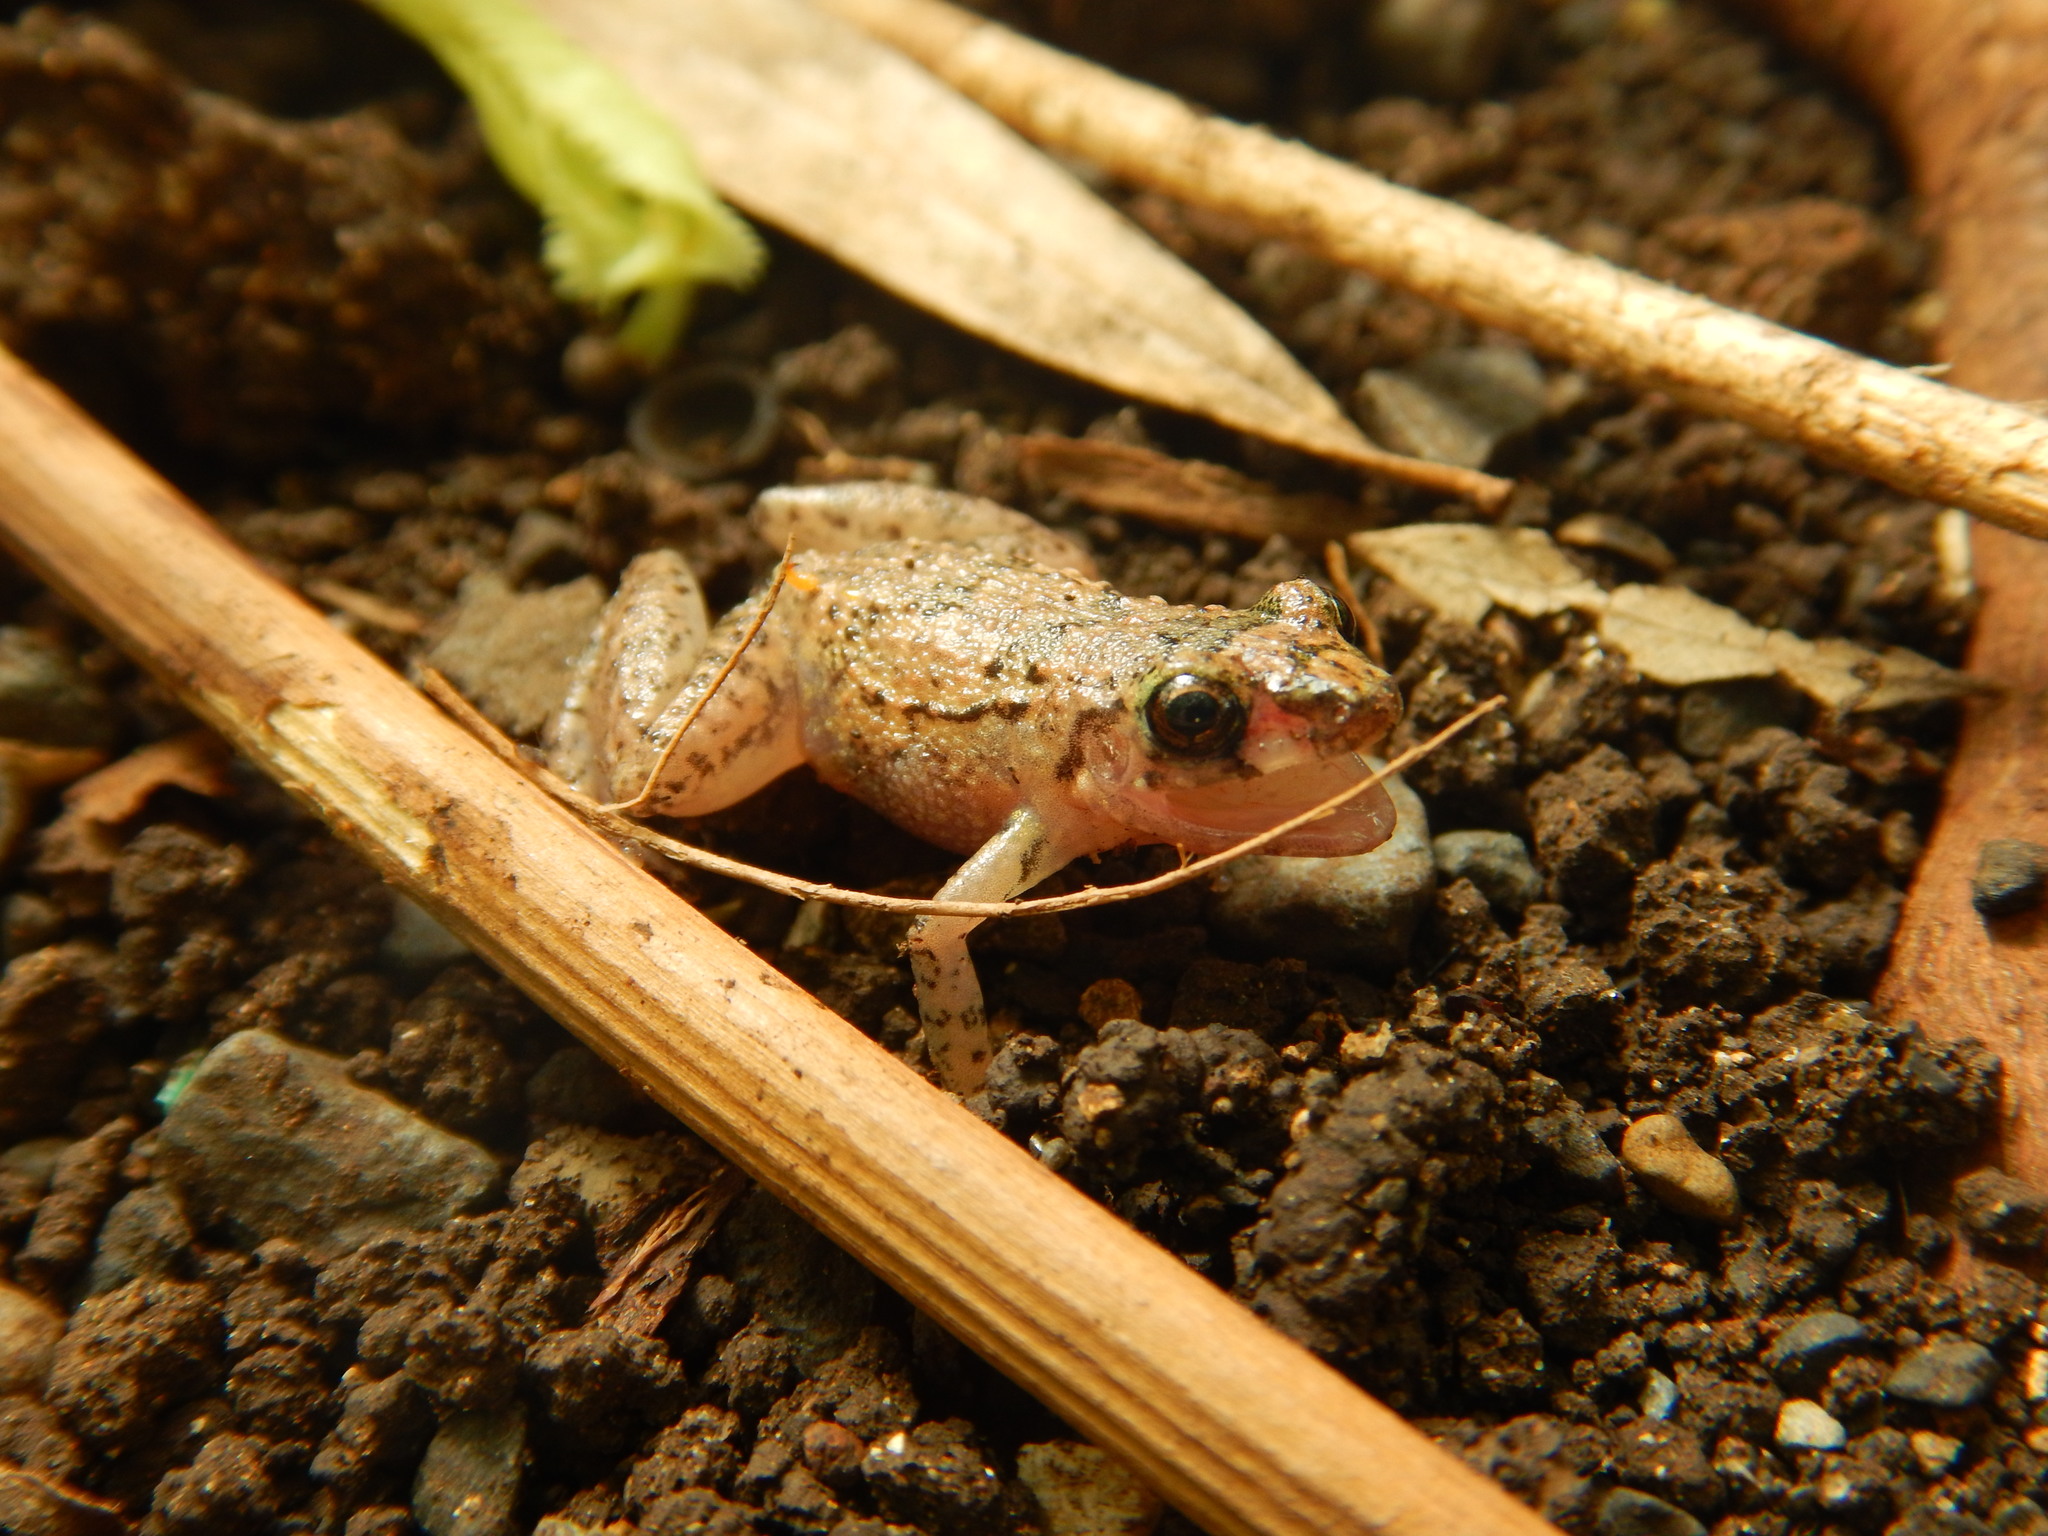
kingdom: Animalia
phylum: Chordata
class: Amphibia
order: Anura
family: Eleutherodactylidae
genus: Eleutherodactylus
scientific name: Eleutherodactylus planirostris
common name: Greenhouse frog
